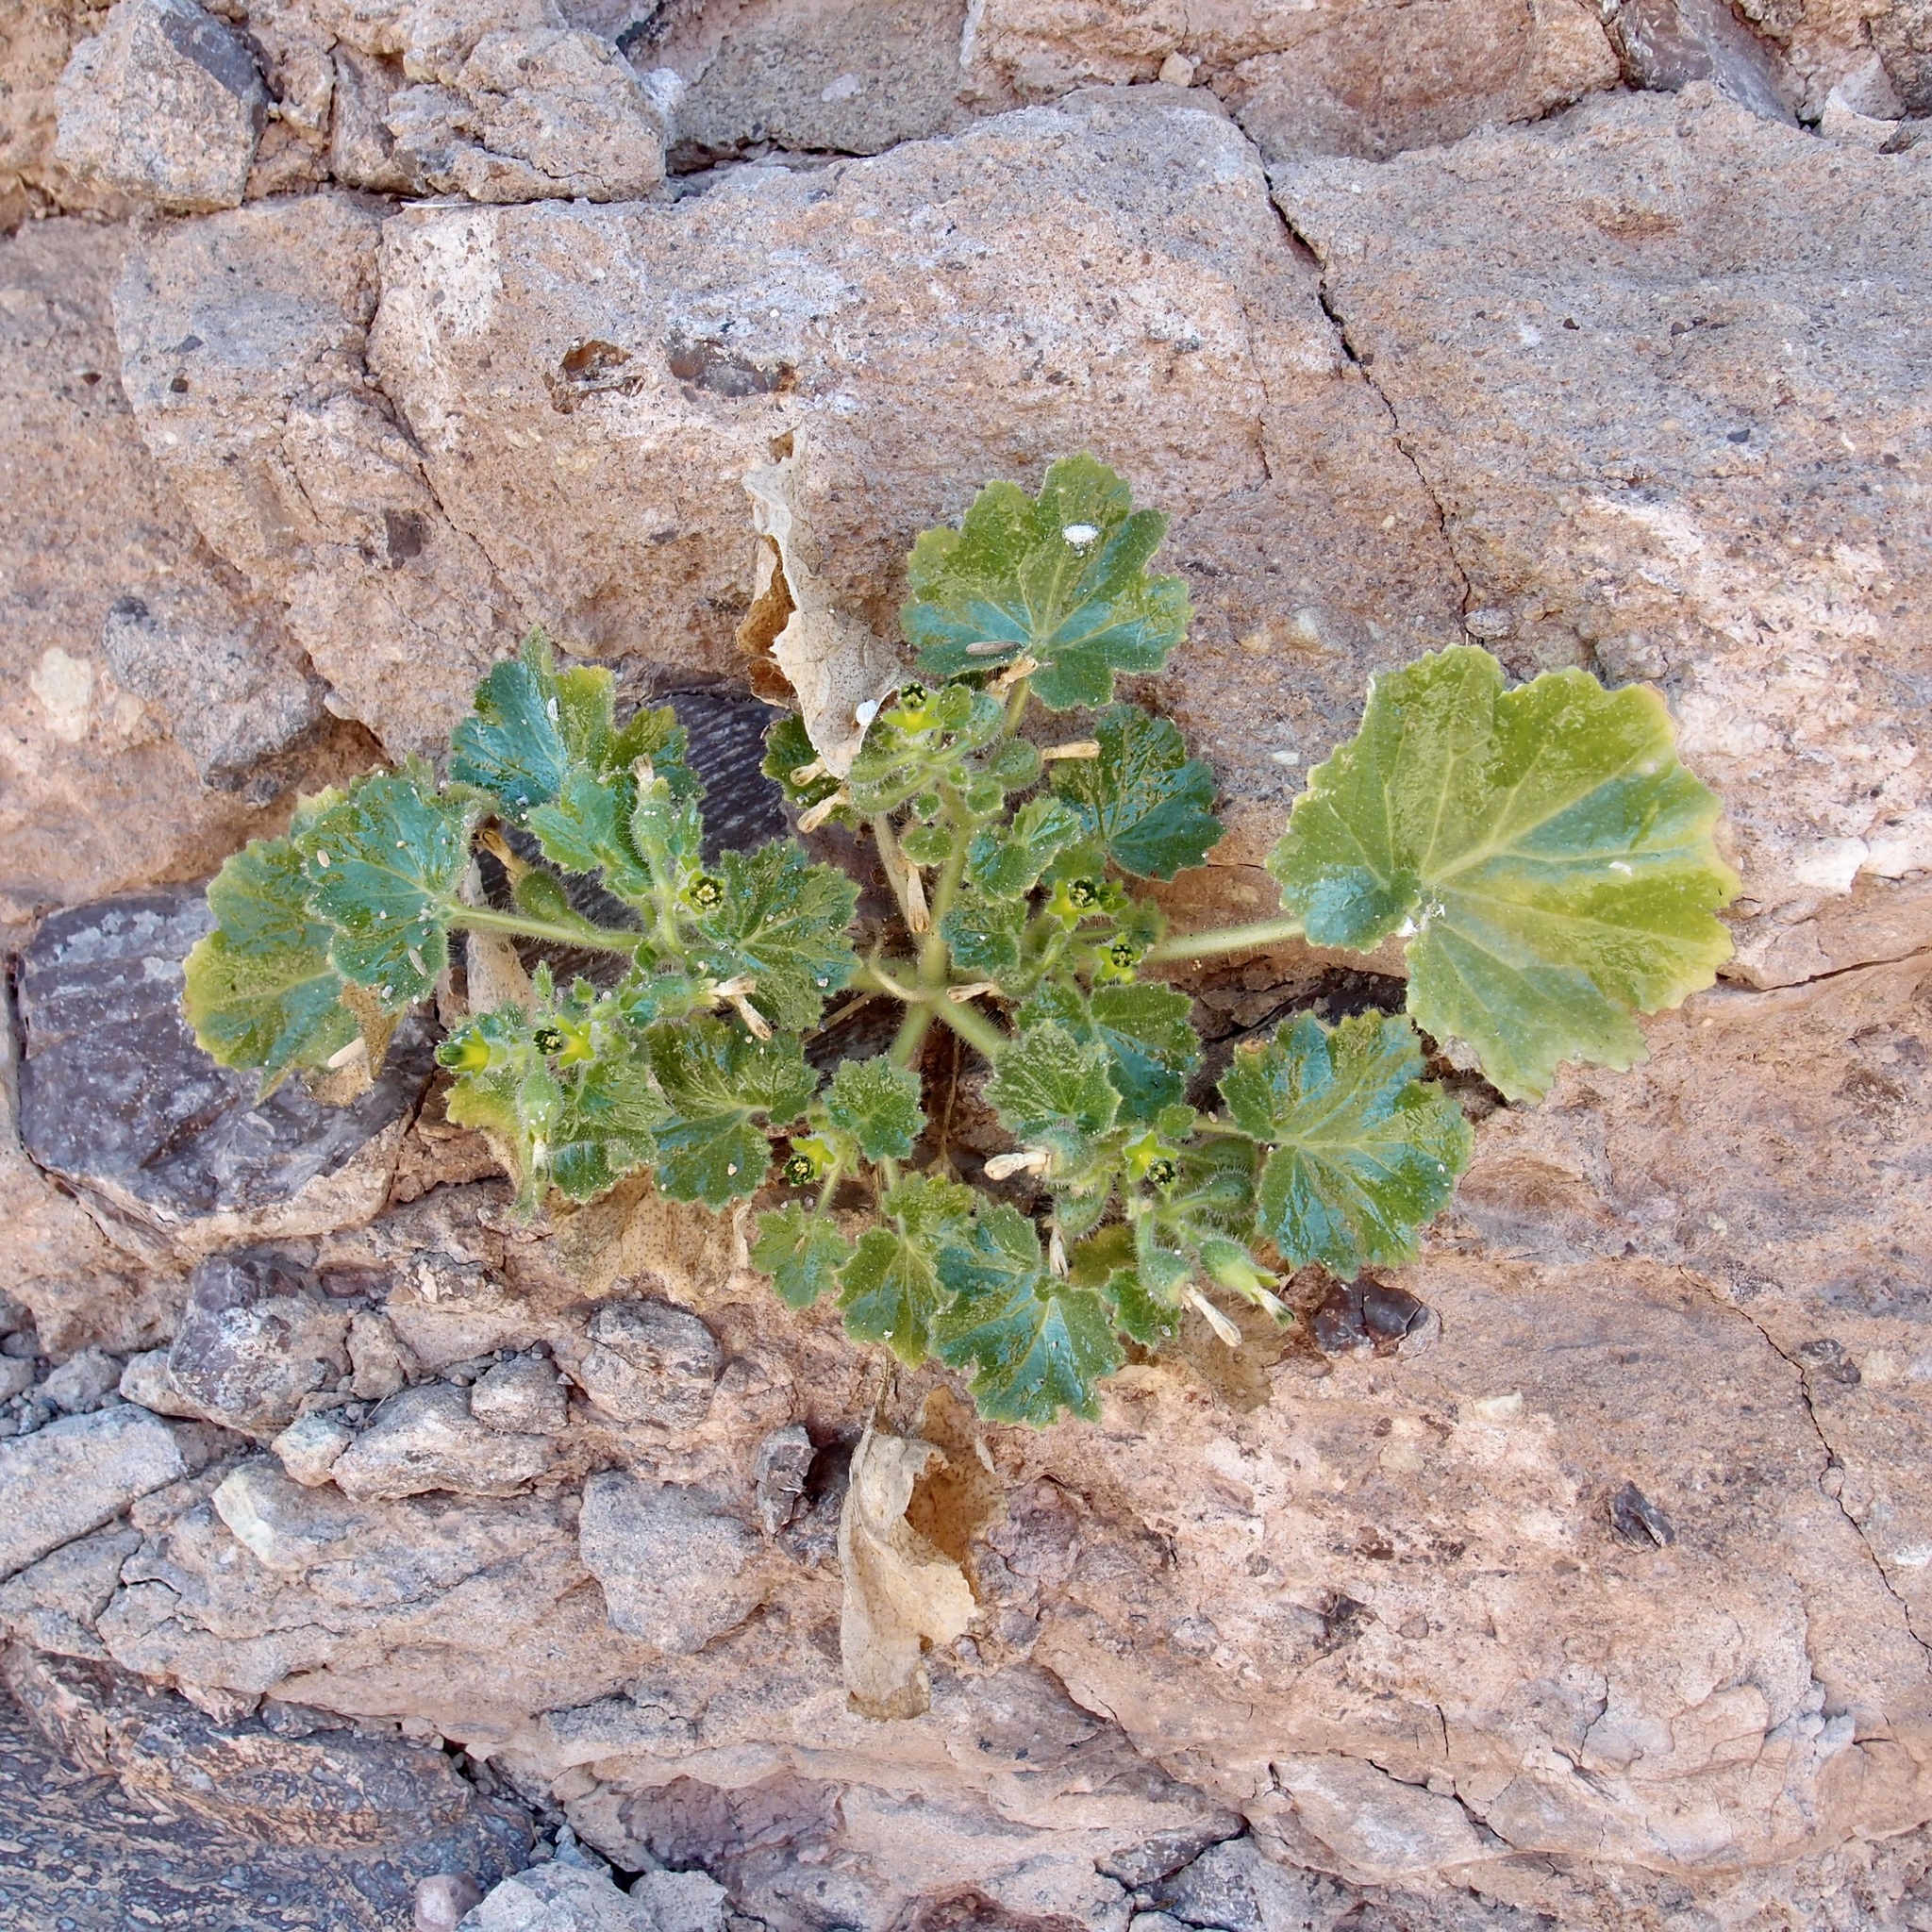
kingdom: Plantae
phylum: Tracheophyta
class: Magnoliopsida
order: Cornales
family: Loasaceae
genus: Eucnide
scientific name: Eucnide rupestris
